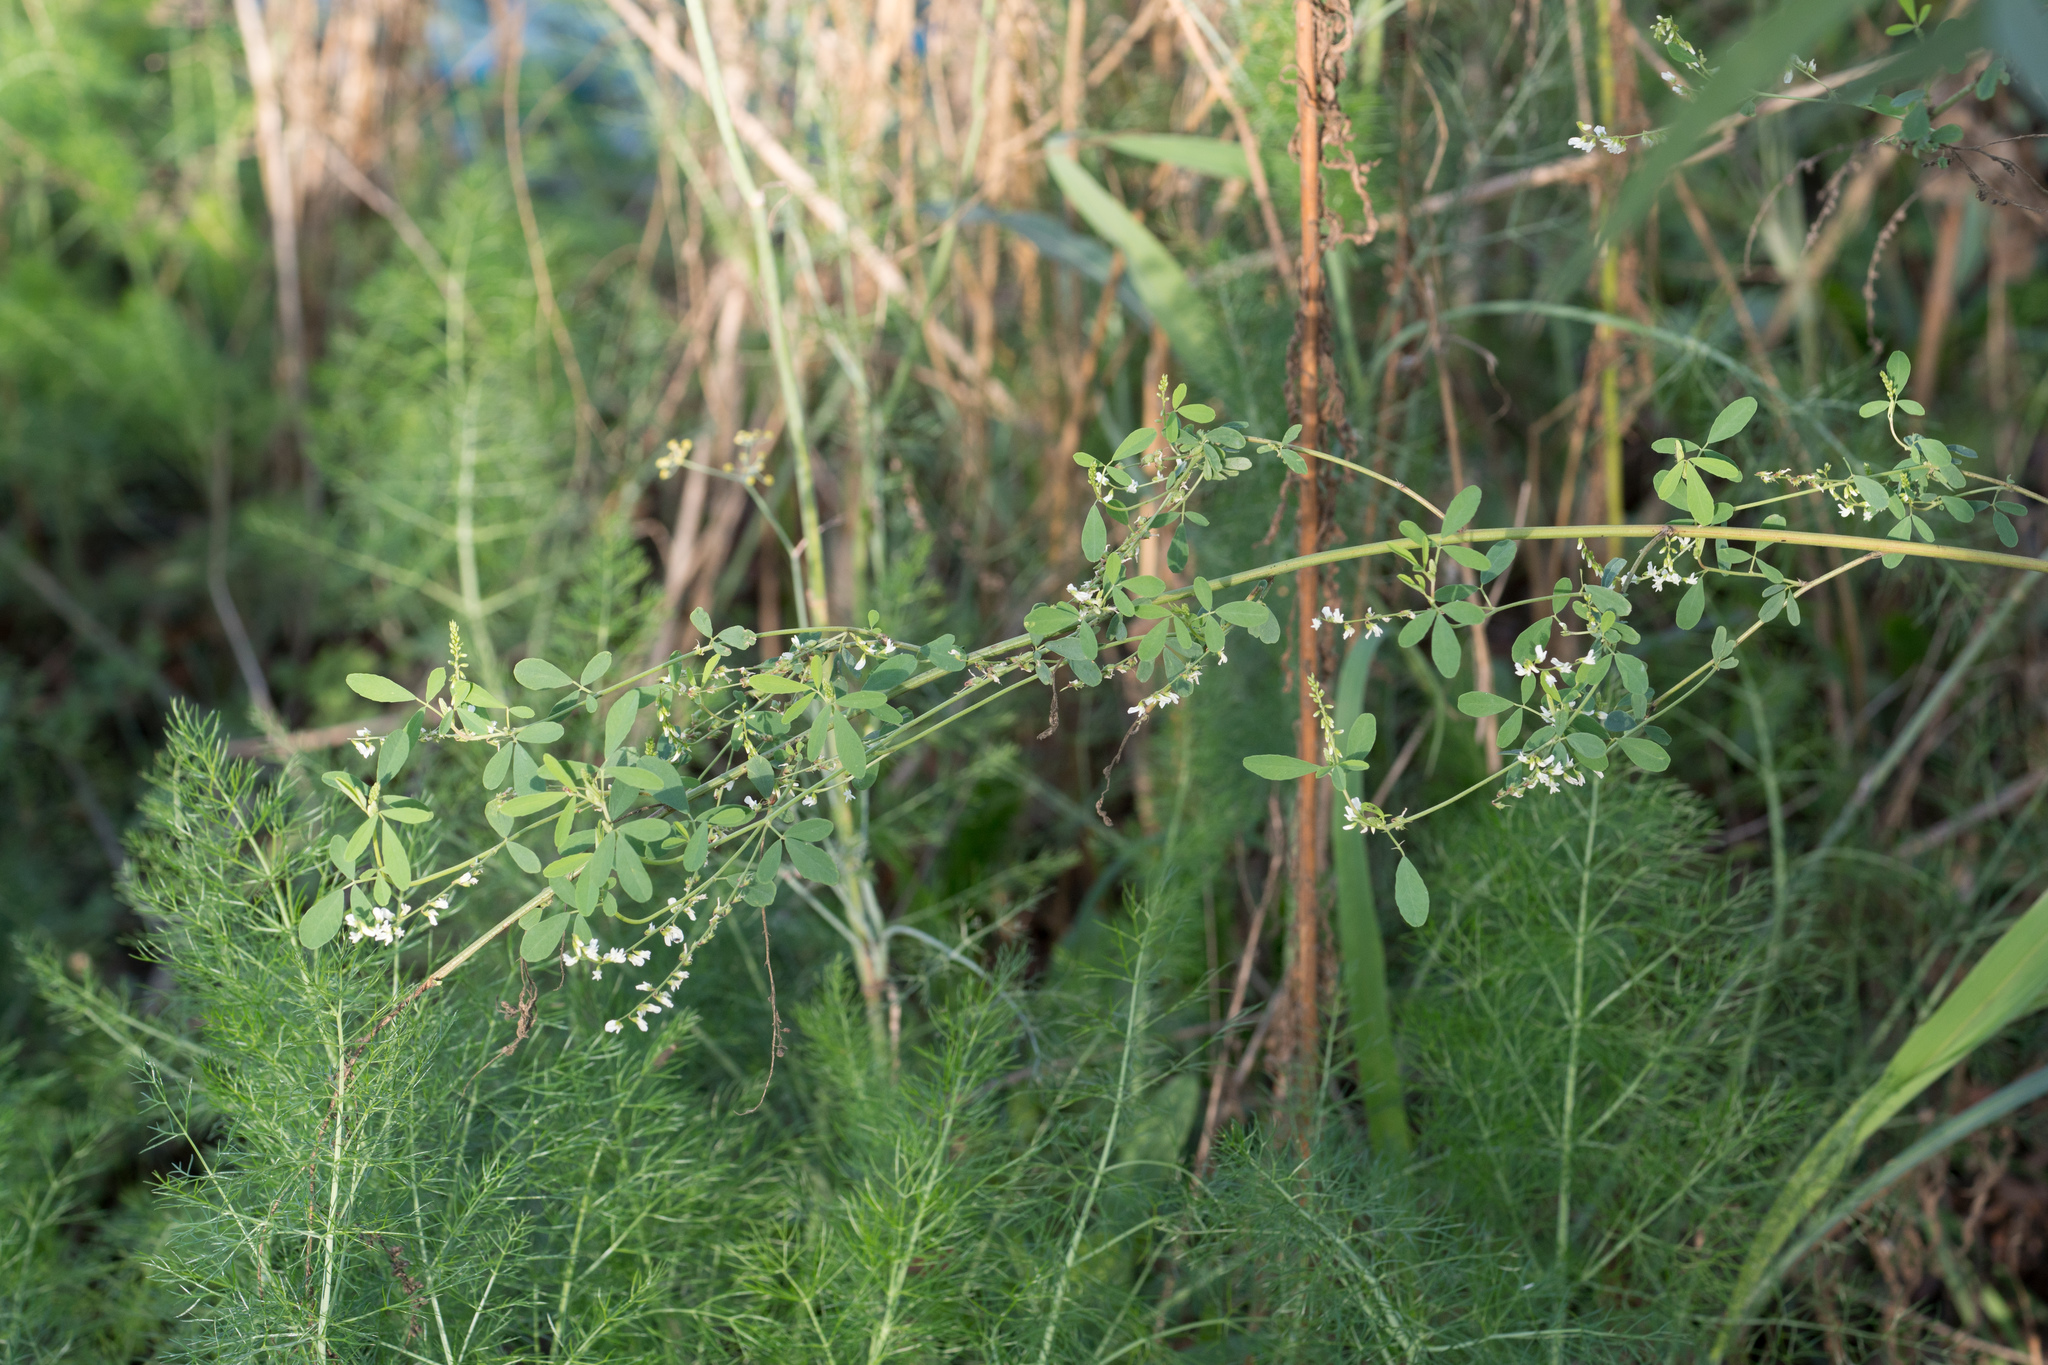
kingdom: Plantae
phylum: Tracheophyta
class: Magnoliopsida
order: Fabales
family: Fabaceae
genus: Melilotus
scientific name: Melilotus albus
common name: White melilot
